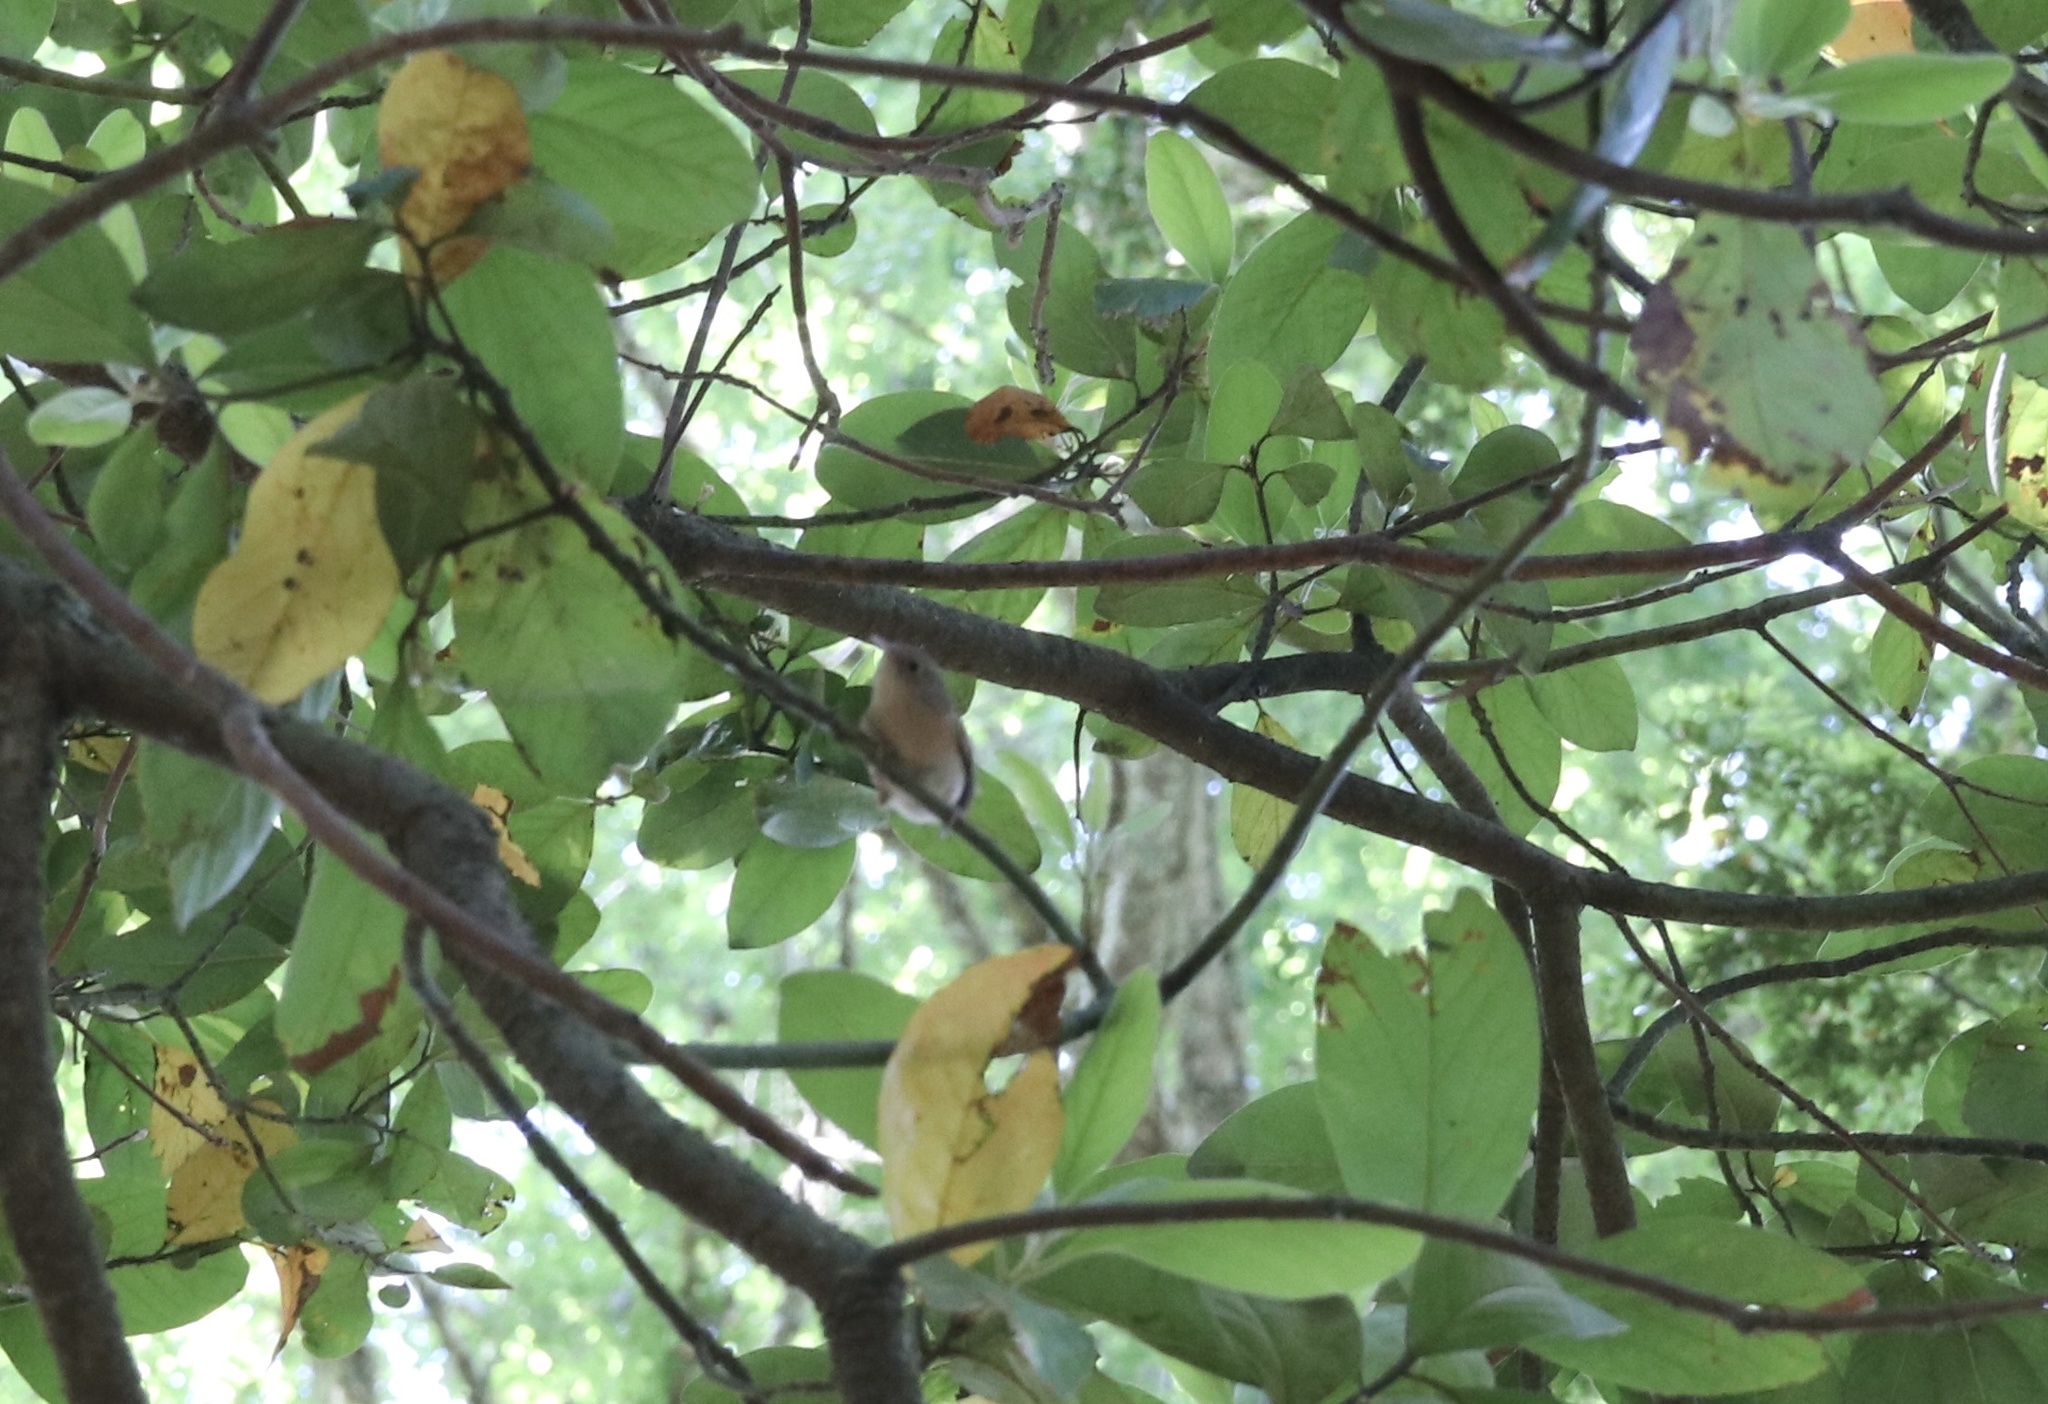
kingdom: Animalia
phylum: Chordata
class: Aves
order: Passeriformes
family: Troglodytidae
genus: Troglodytes
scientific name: Troglodytes aedon
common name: House wren
